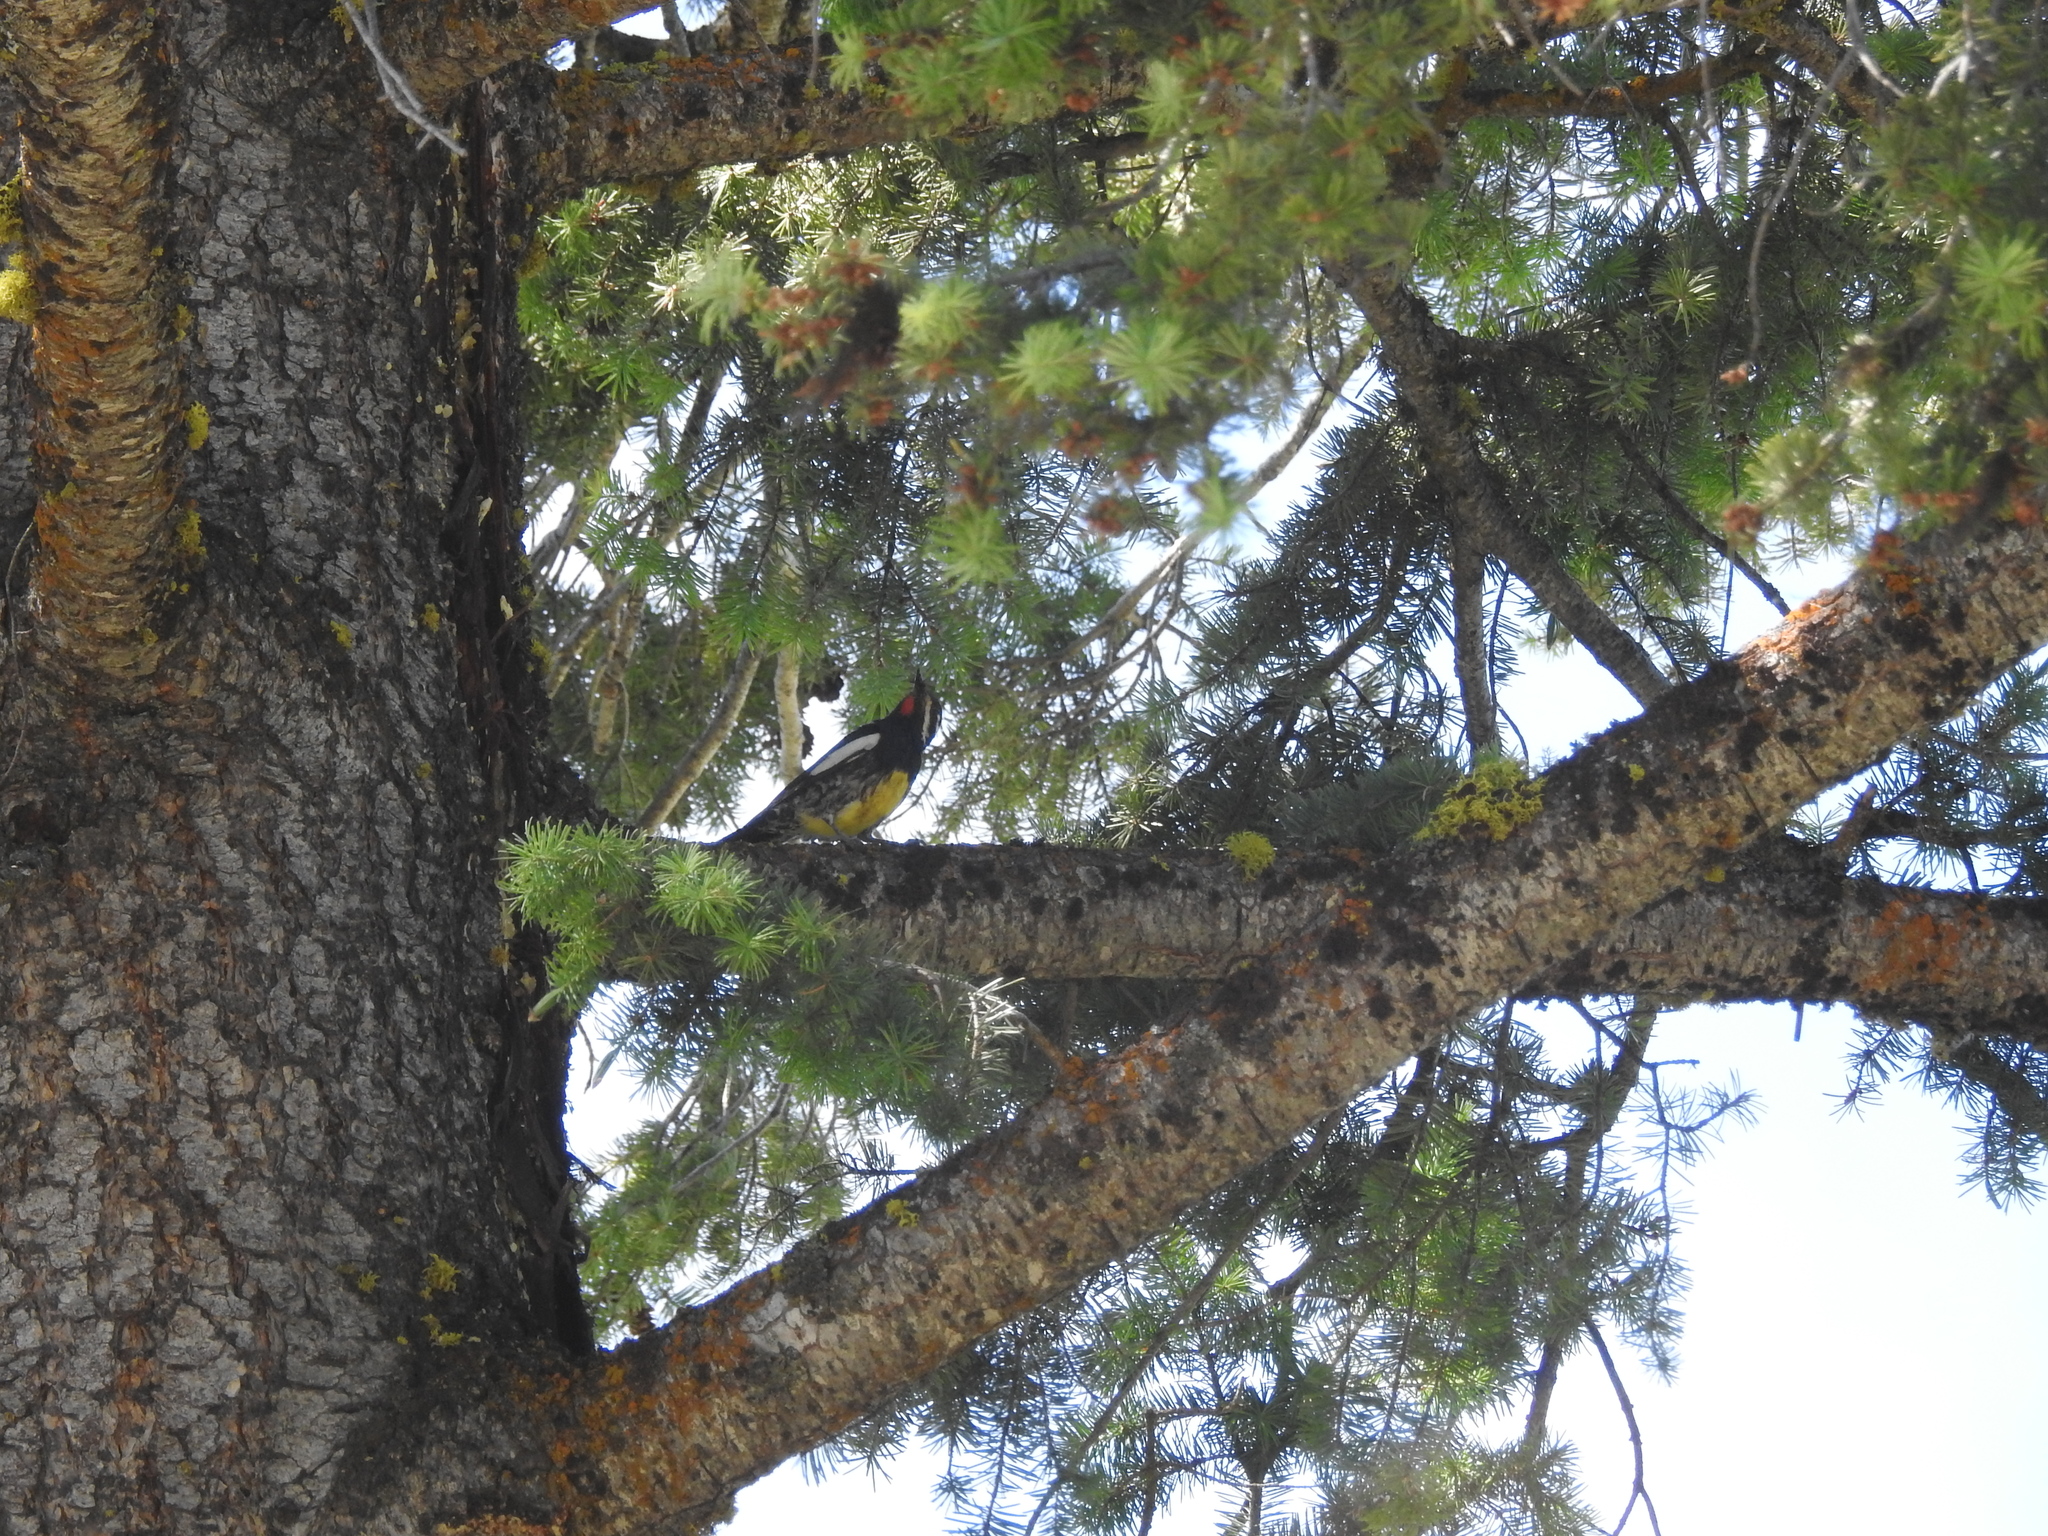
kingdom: Animalia
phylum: Chordata
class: Aves
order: Piciformes
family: Picidae
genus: Sphyrapicus
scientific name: Sphyrapicus thyroideus
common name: Williamson's sapsucker
